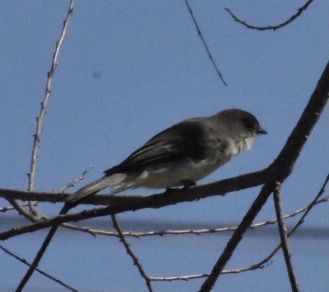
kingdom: Animalia
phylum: Chordata
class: Aves
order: Passeriformes
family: Tyrannidae
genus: Sayornis
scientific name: Sayornis phoebe
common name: Eastern phoebe
